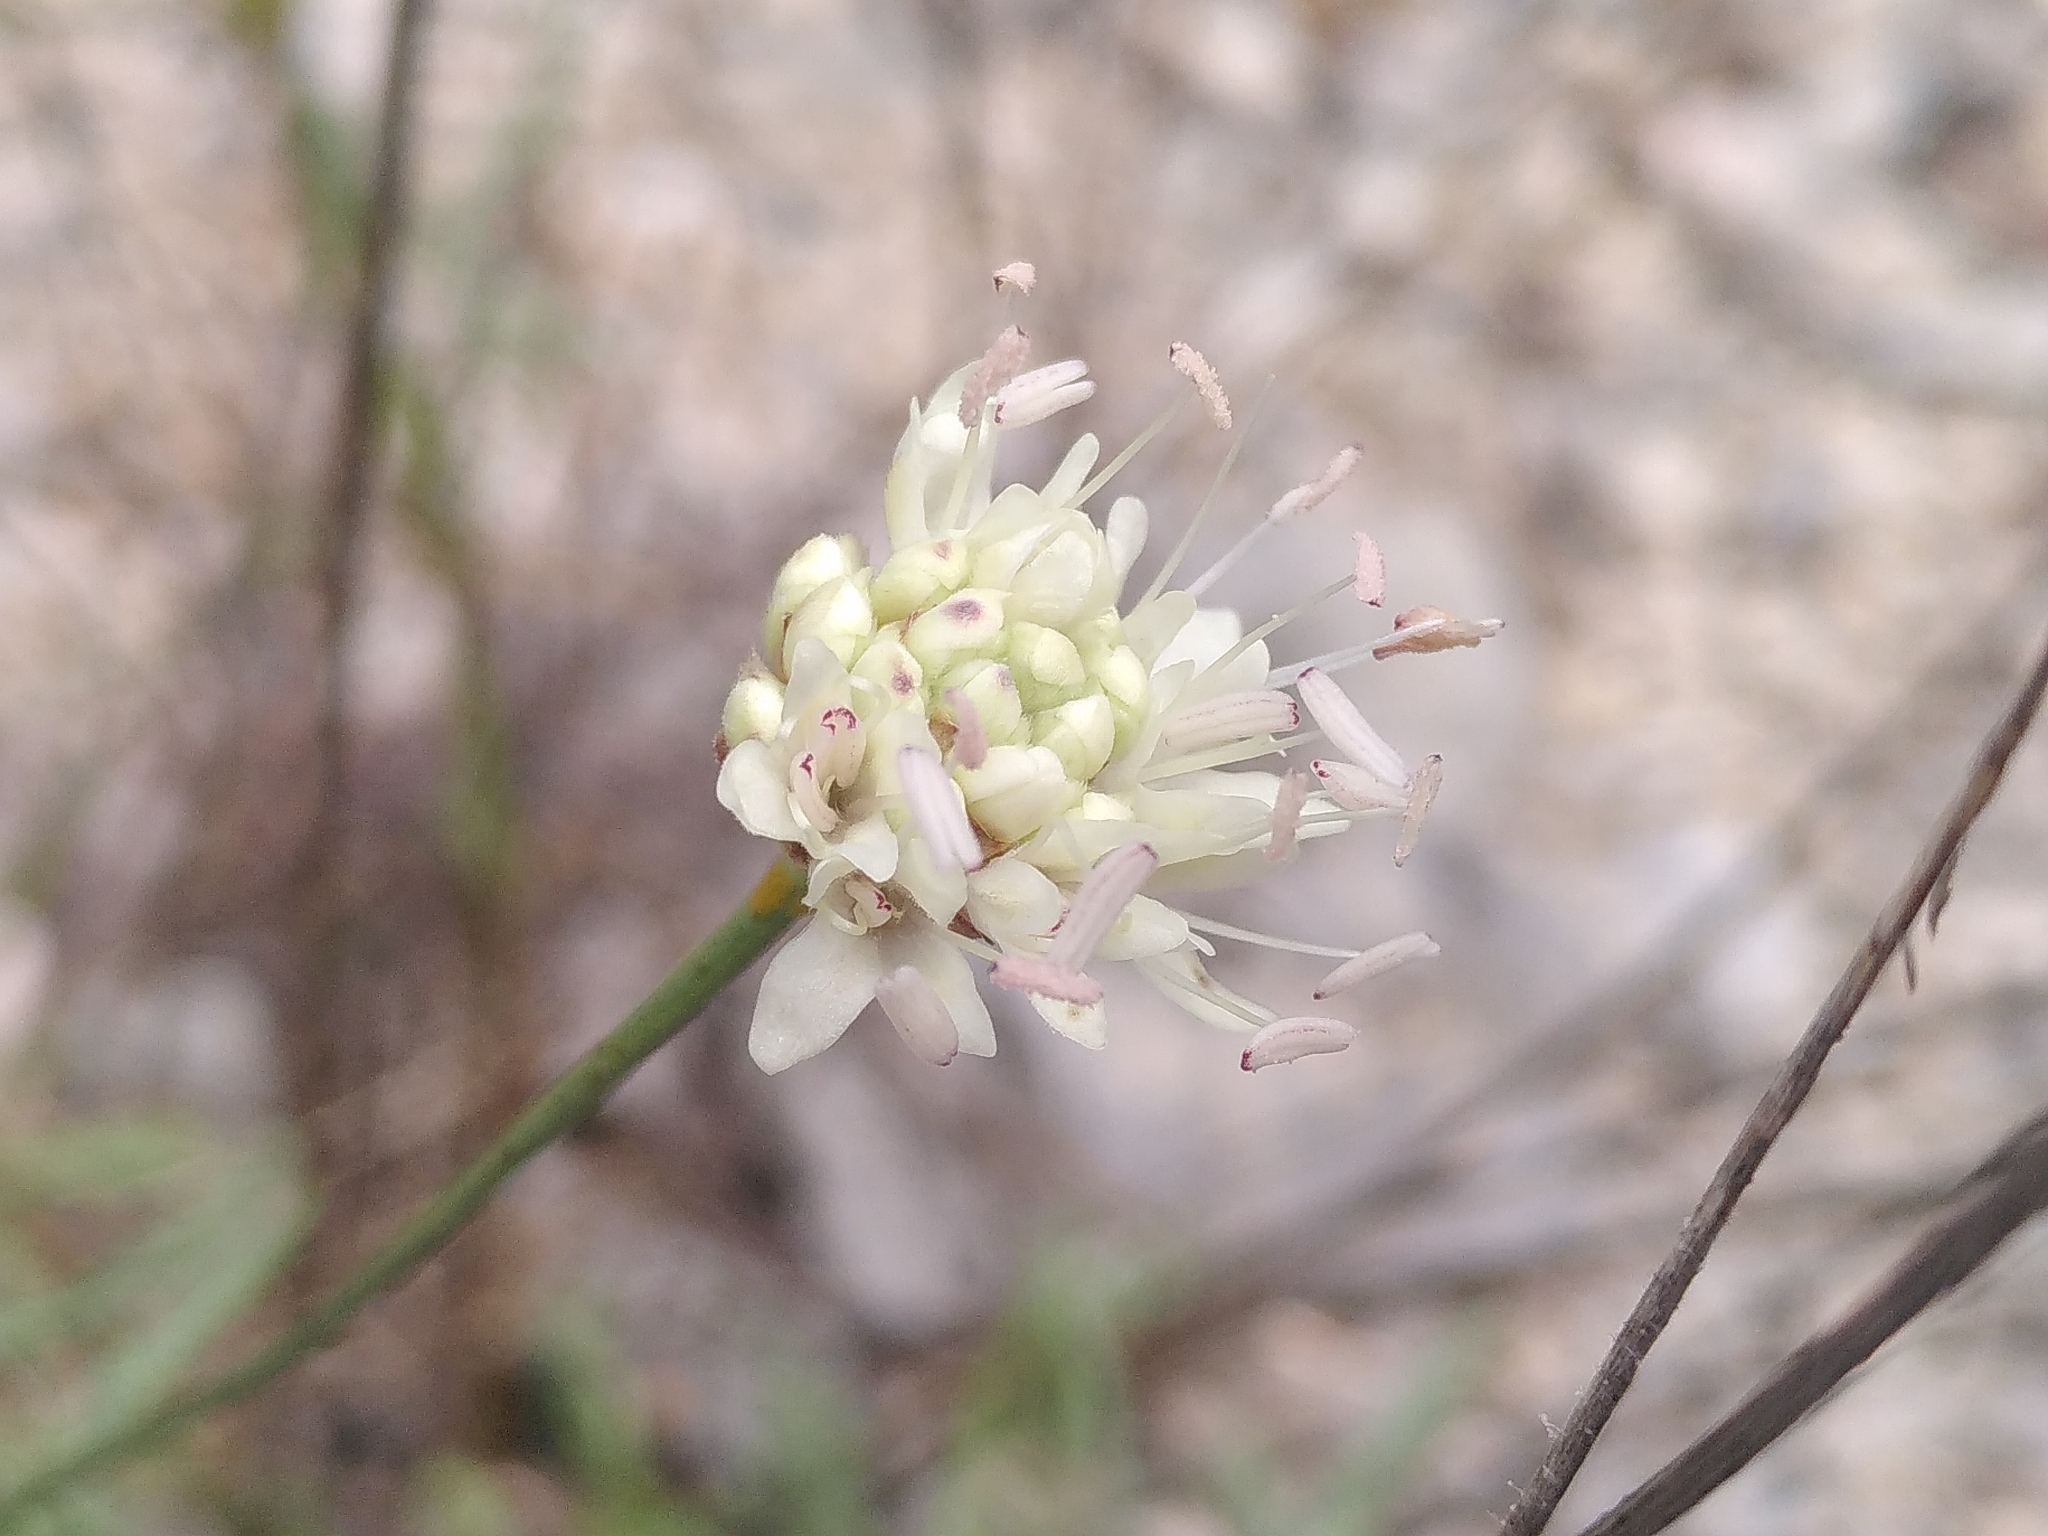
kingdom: Plantae
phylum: Tracheophyta
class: Magnoliopsida
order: Dipsacales
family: Caprifoliaceae
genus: Cephalaria
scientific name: Cephalaria leucantha
